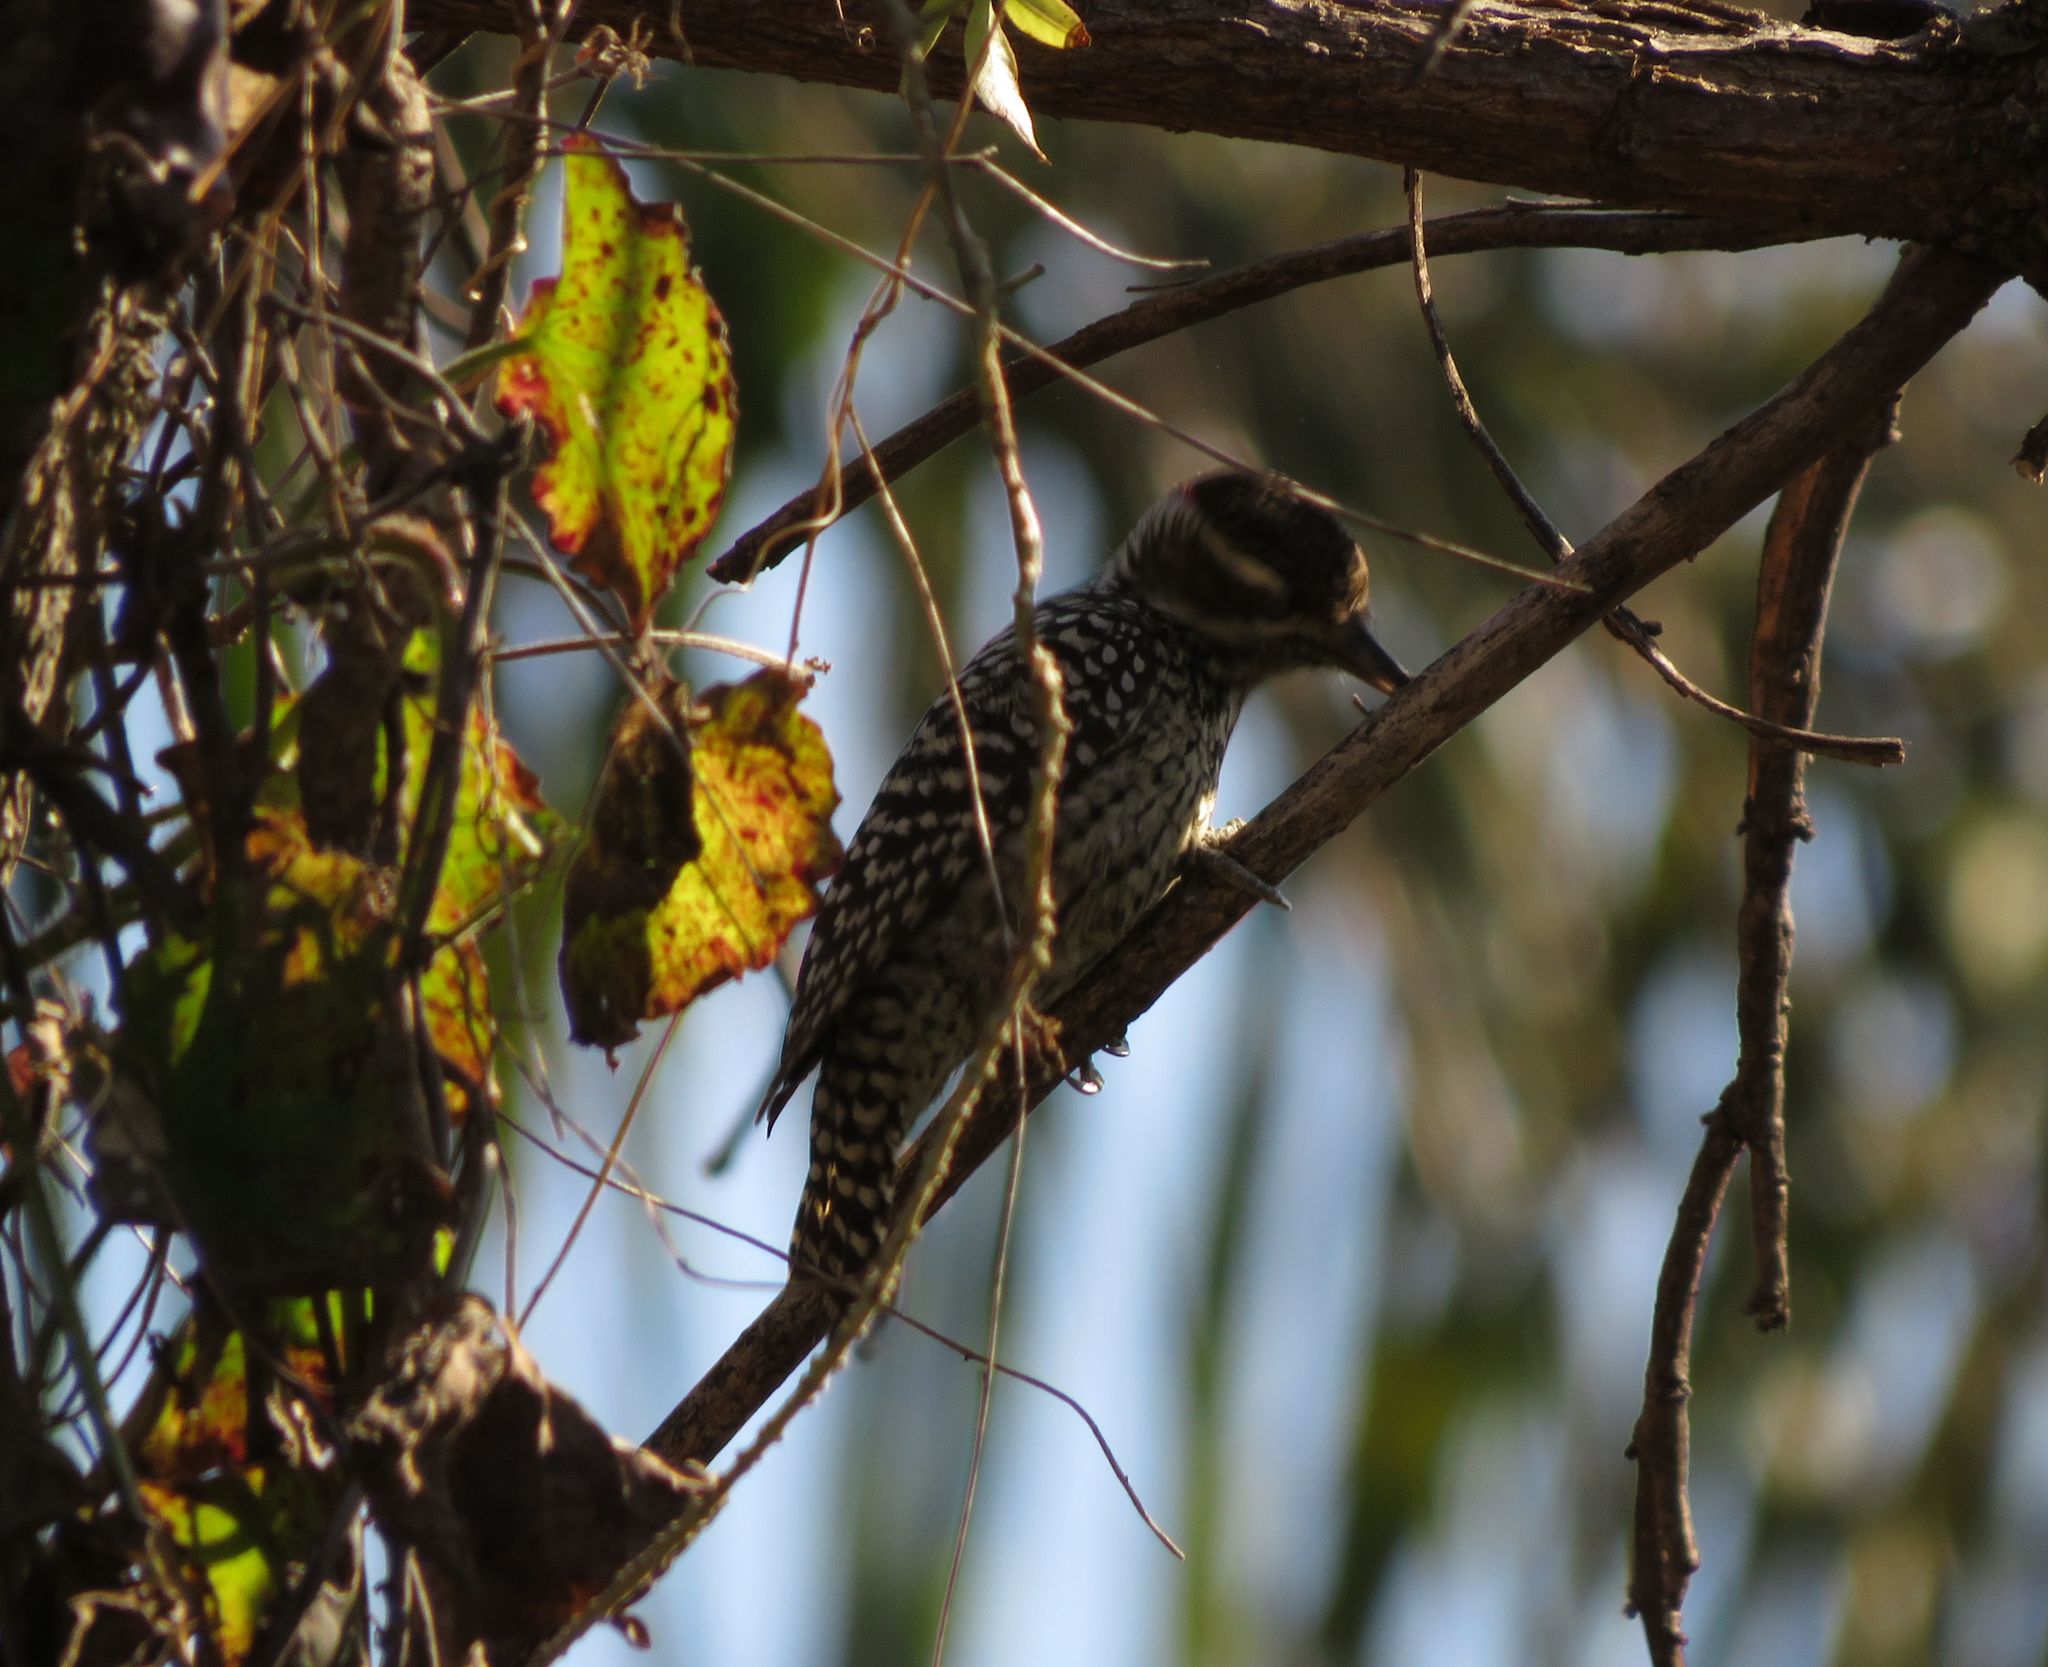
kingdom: Animalia
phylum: Chordata
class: Aves
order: Piciformes
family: Picidae
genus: Veniliornis
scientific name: Veniliornis mixtus
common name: Checkered woodpecker
